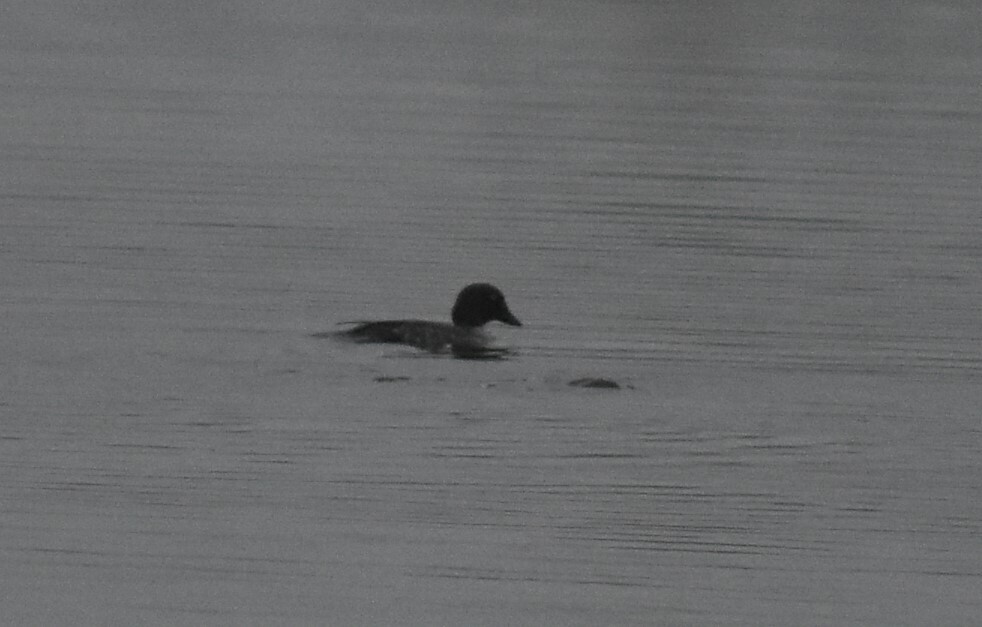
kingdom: Animalia
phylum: Chordata
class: Aves
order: Anseriformes
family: Anatidae
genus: Bucephala
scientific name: Bucephala clangula
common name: Common goldeneye
